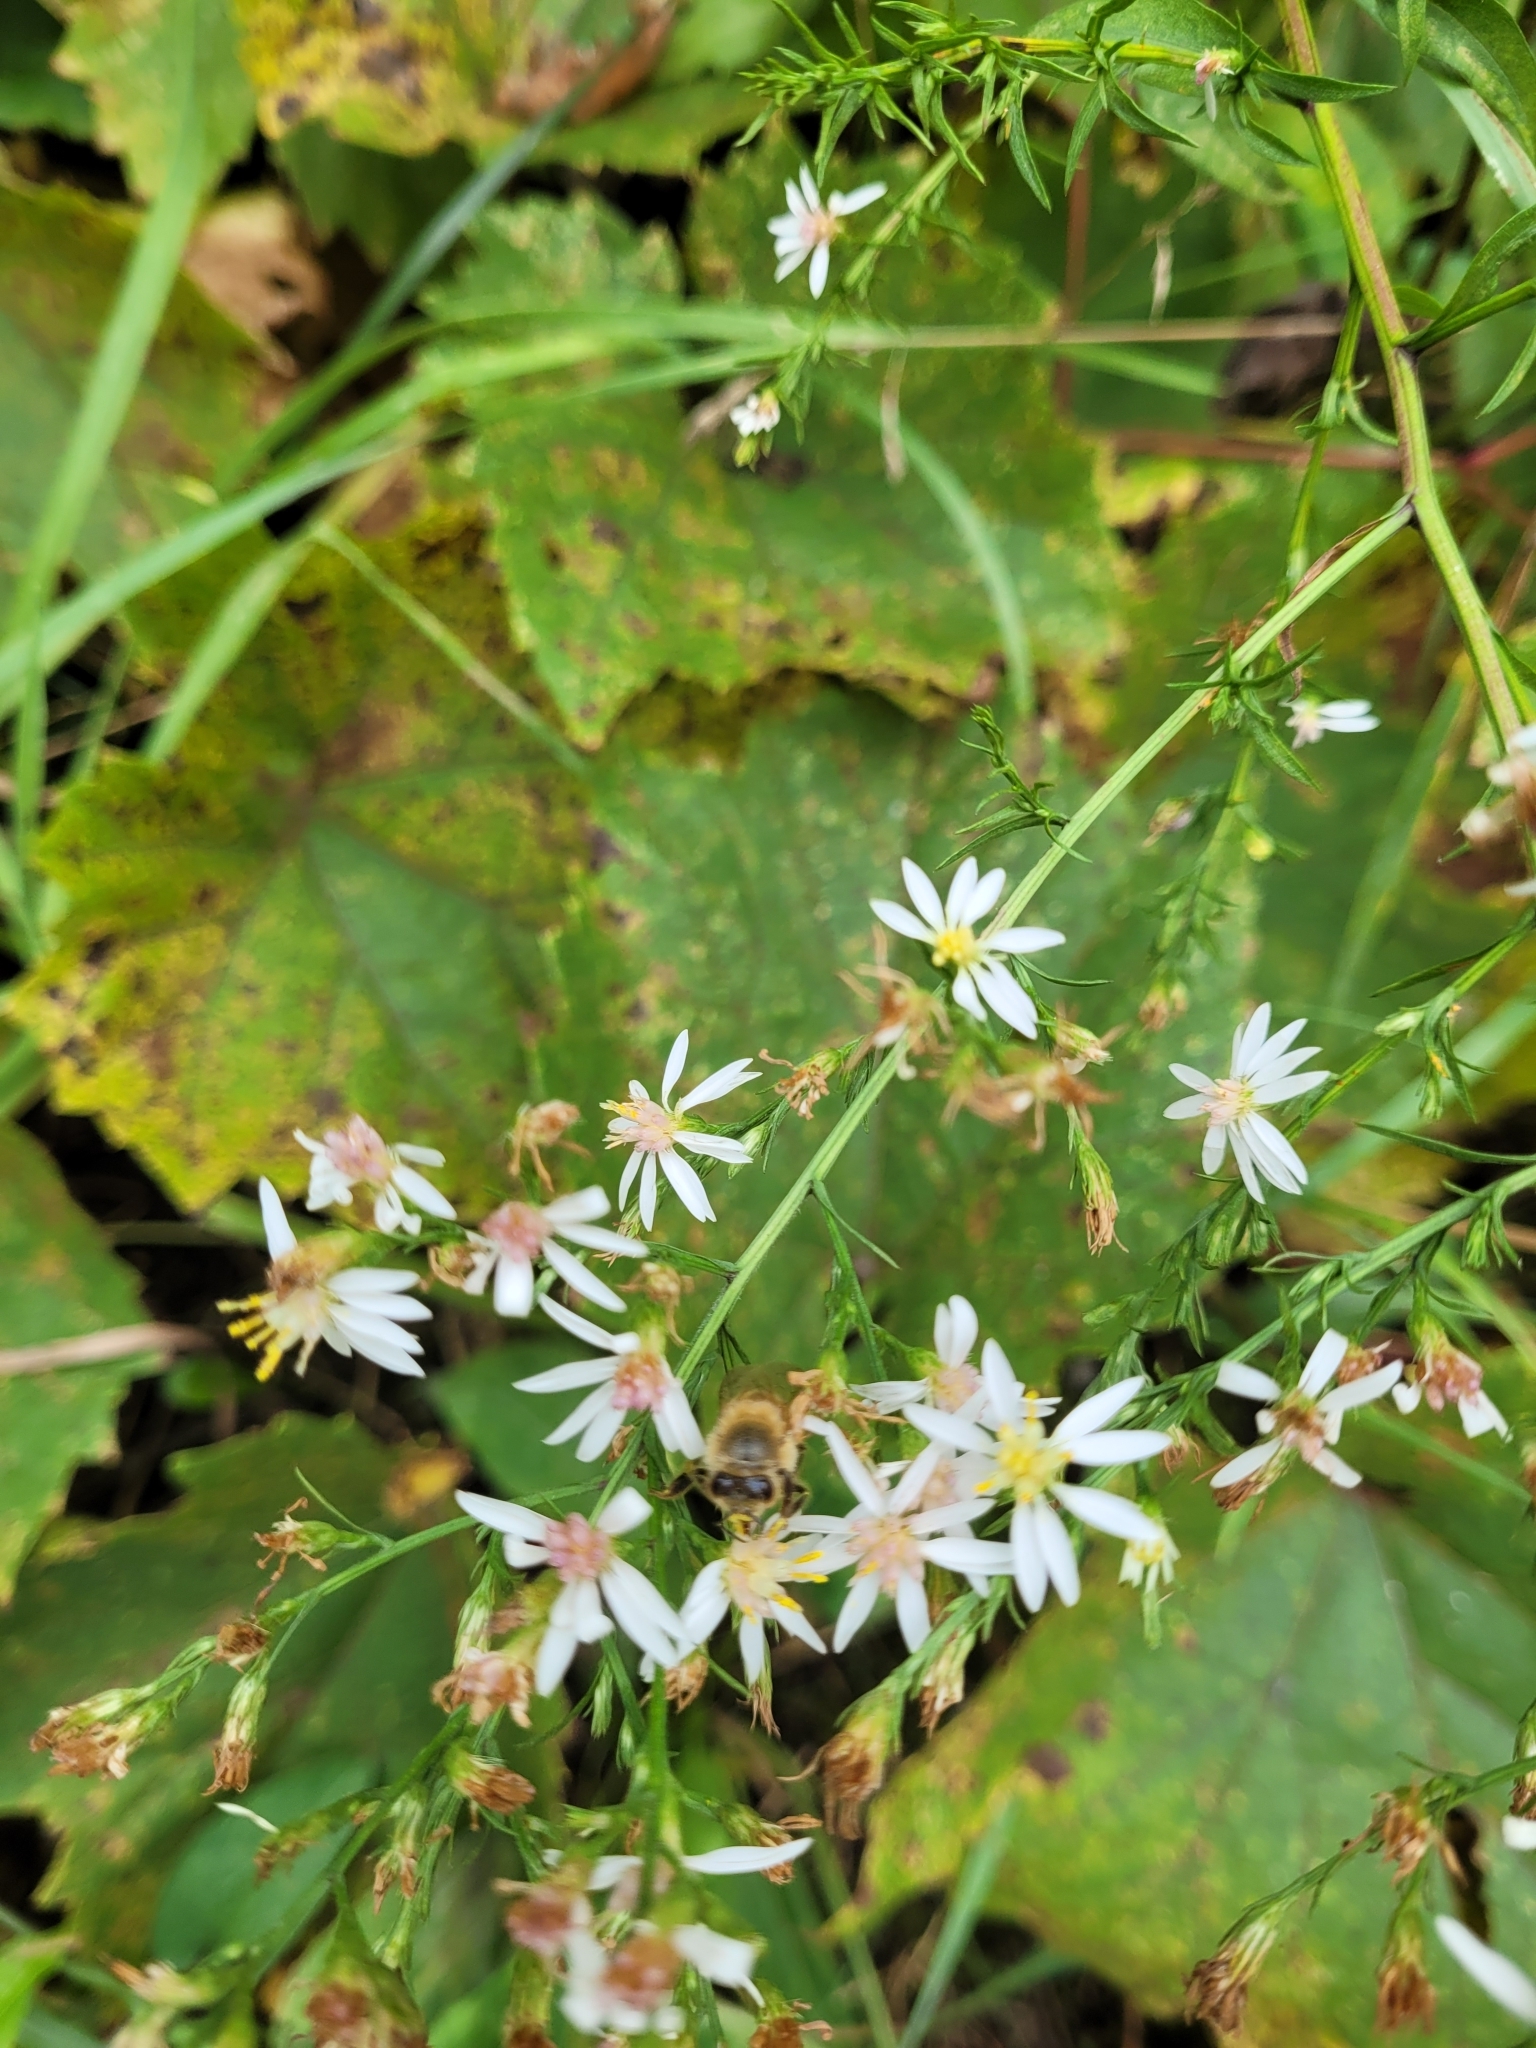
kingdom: Animalia
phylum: Arthropoda
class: Insecta
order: Hymenoptera
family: Apidae
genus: Apis
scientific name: Apis mellifera
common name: Honey bee
